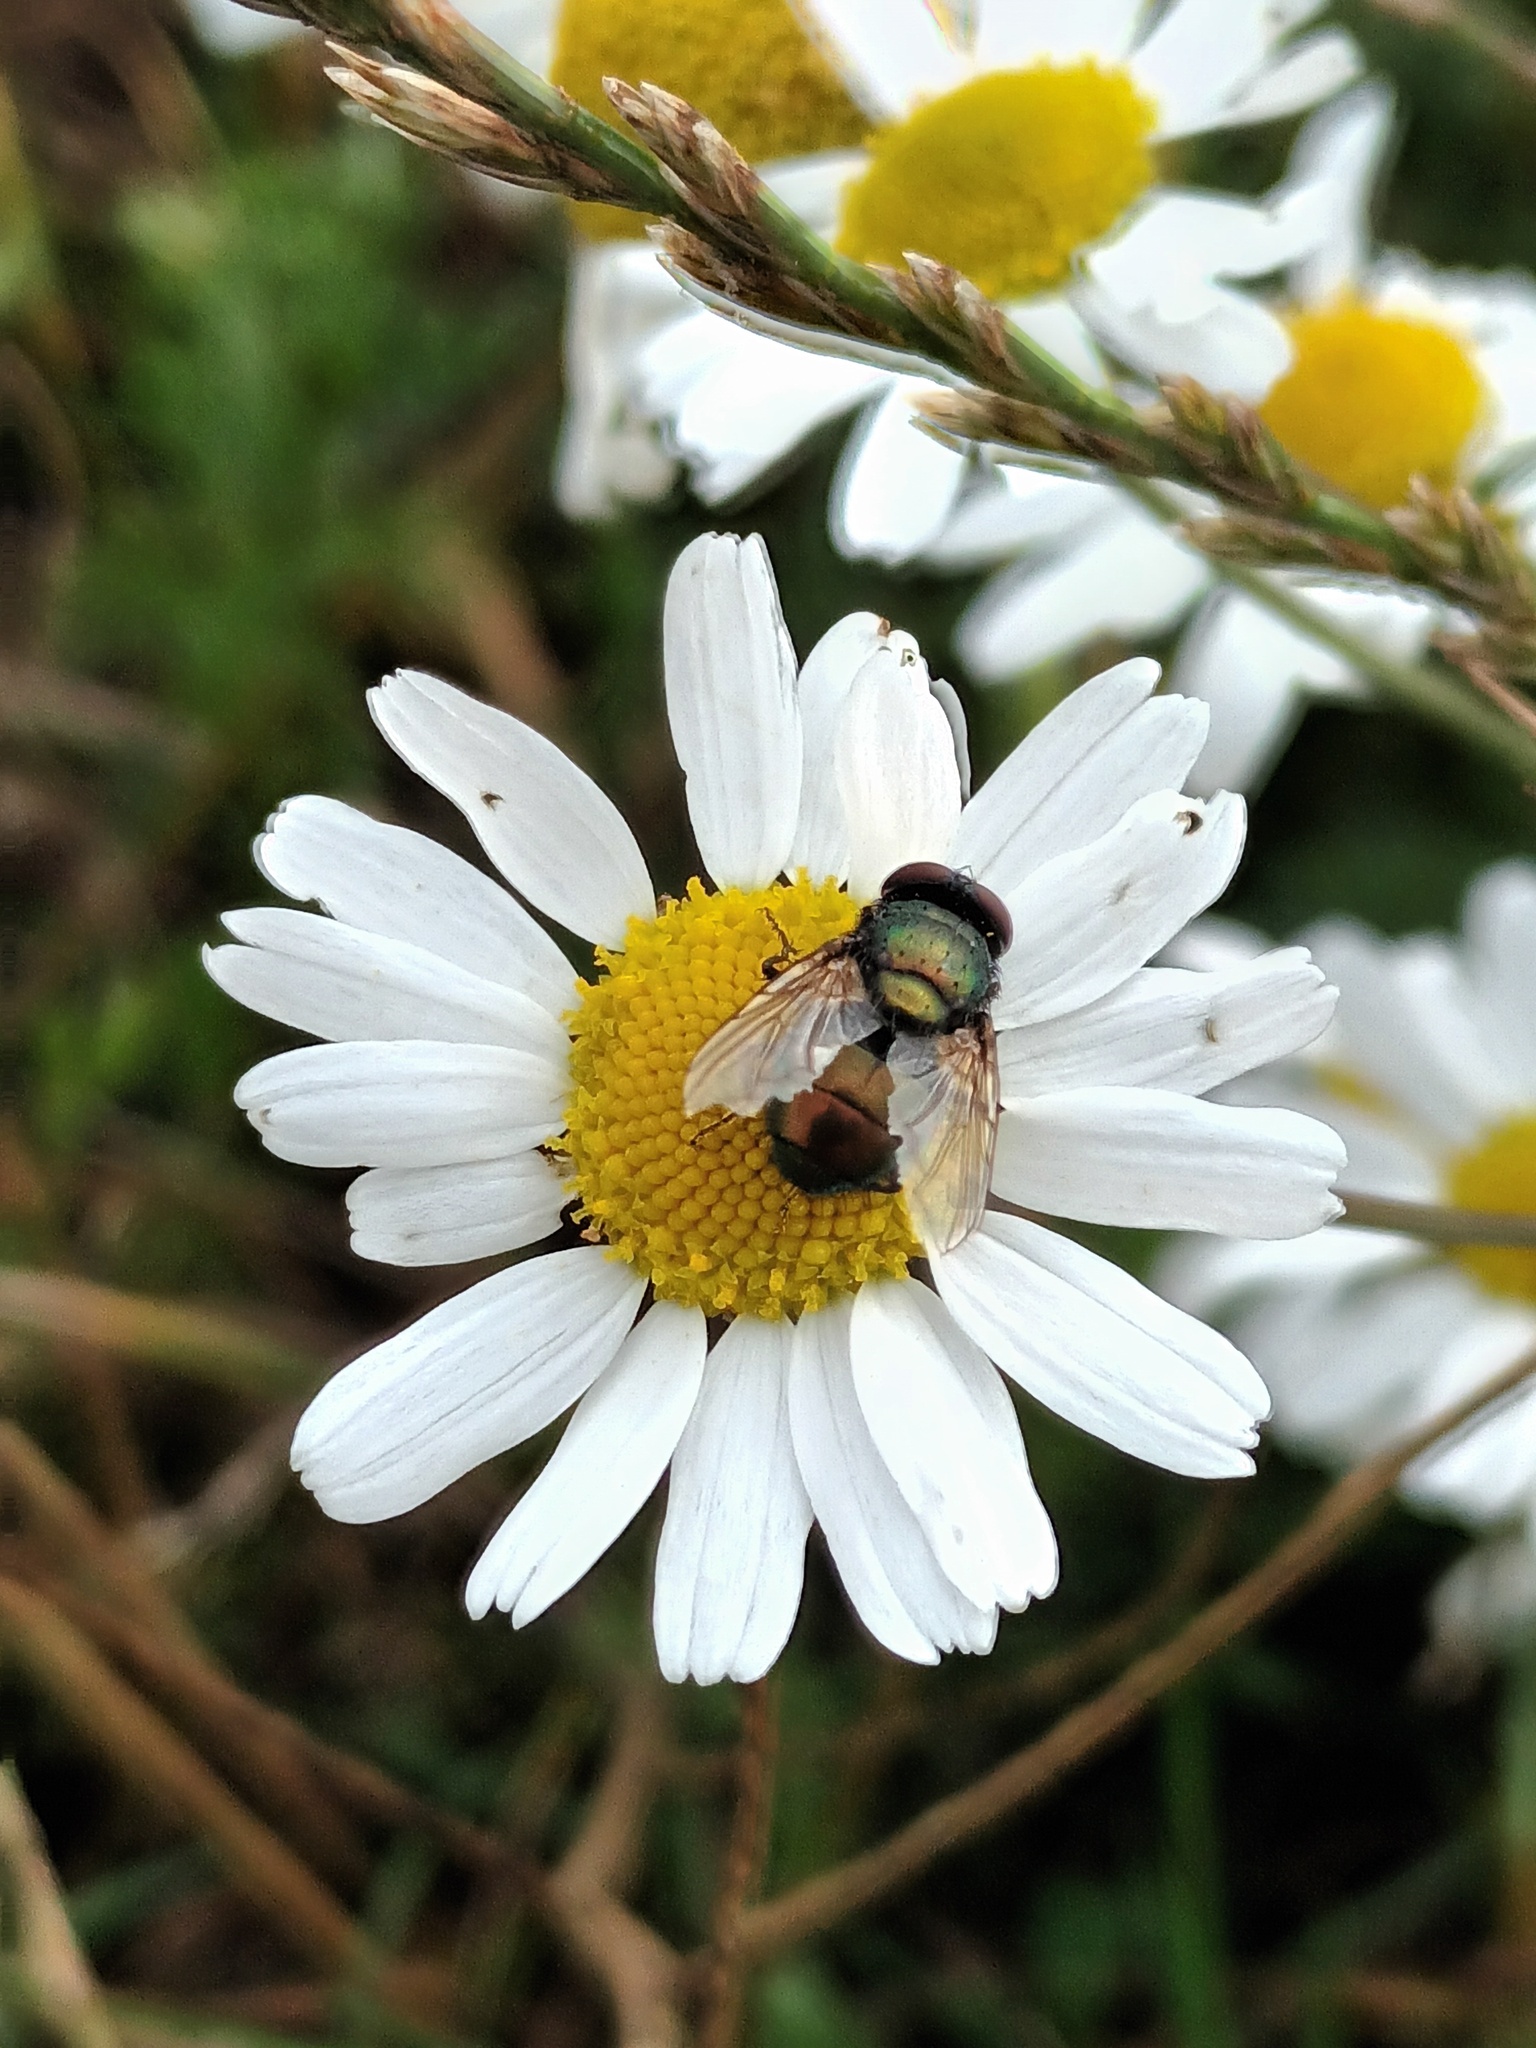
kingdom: Animalia
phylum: Arthropoda
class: Insecta
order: Diptera
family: Calliphoridae
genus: Lucilia
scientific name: Lucilia
